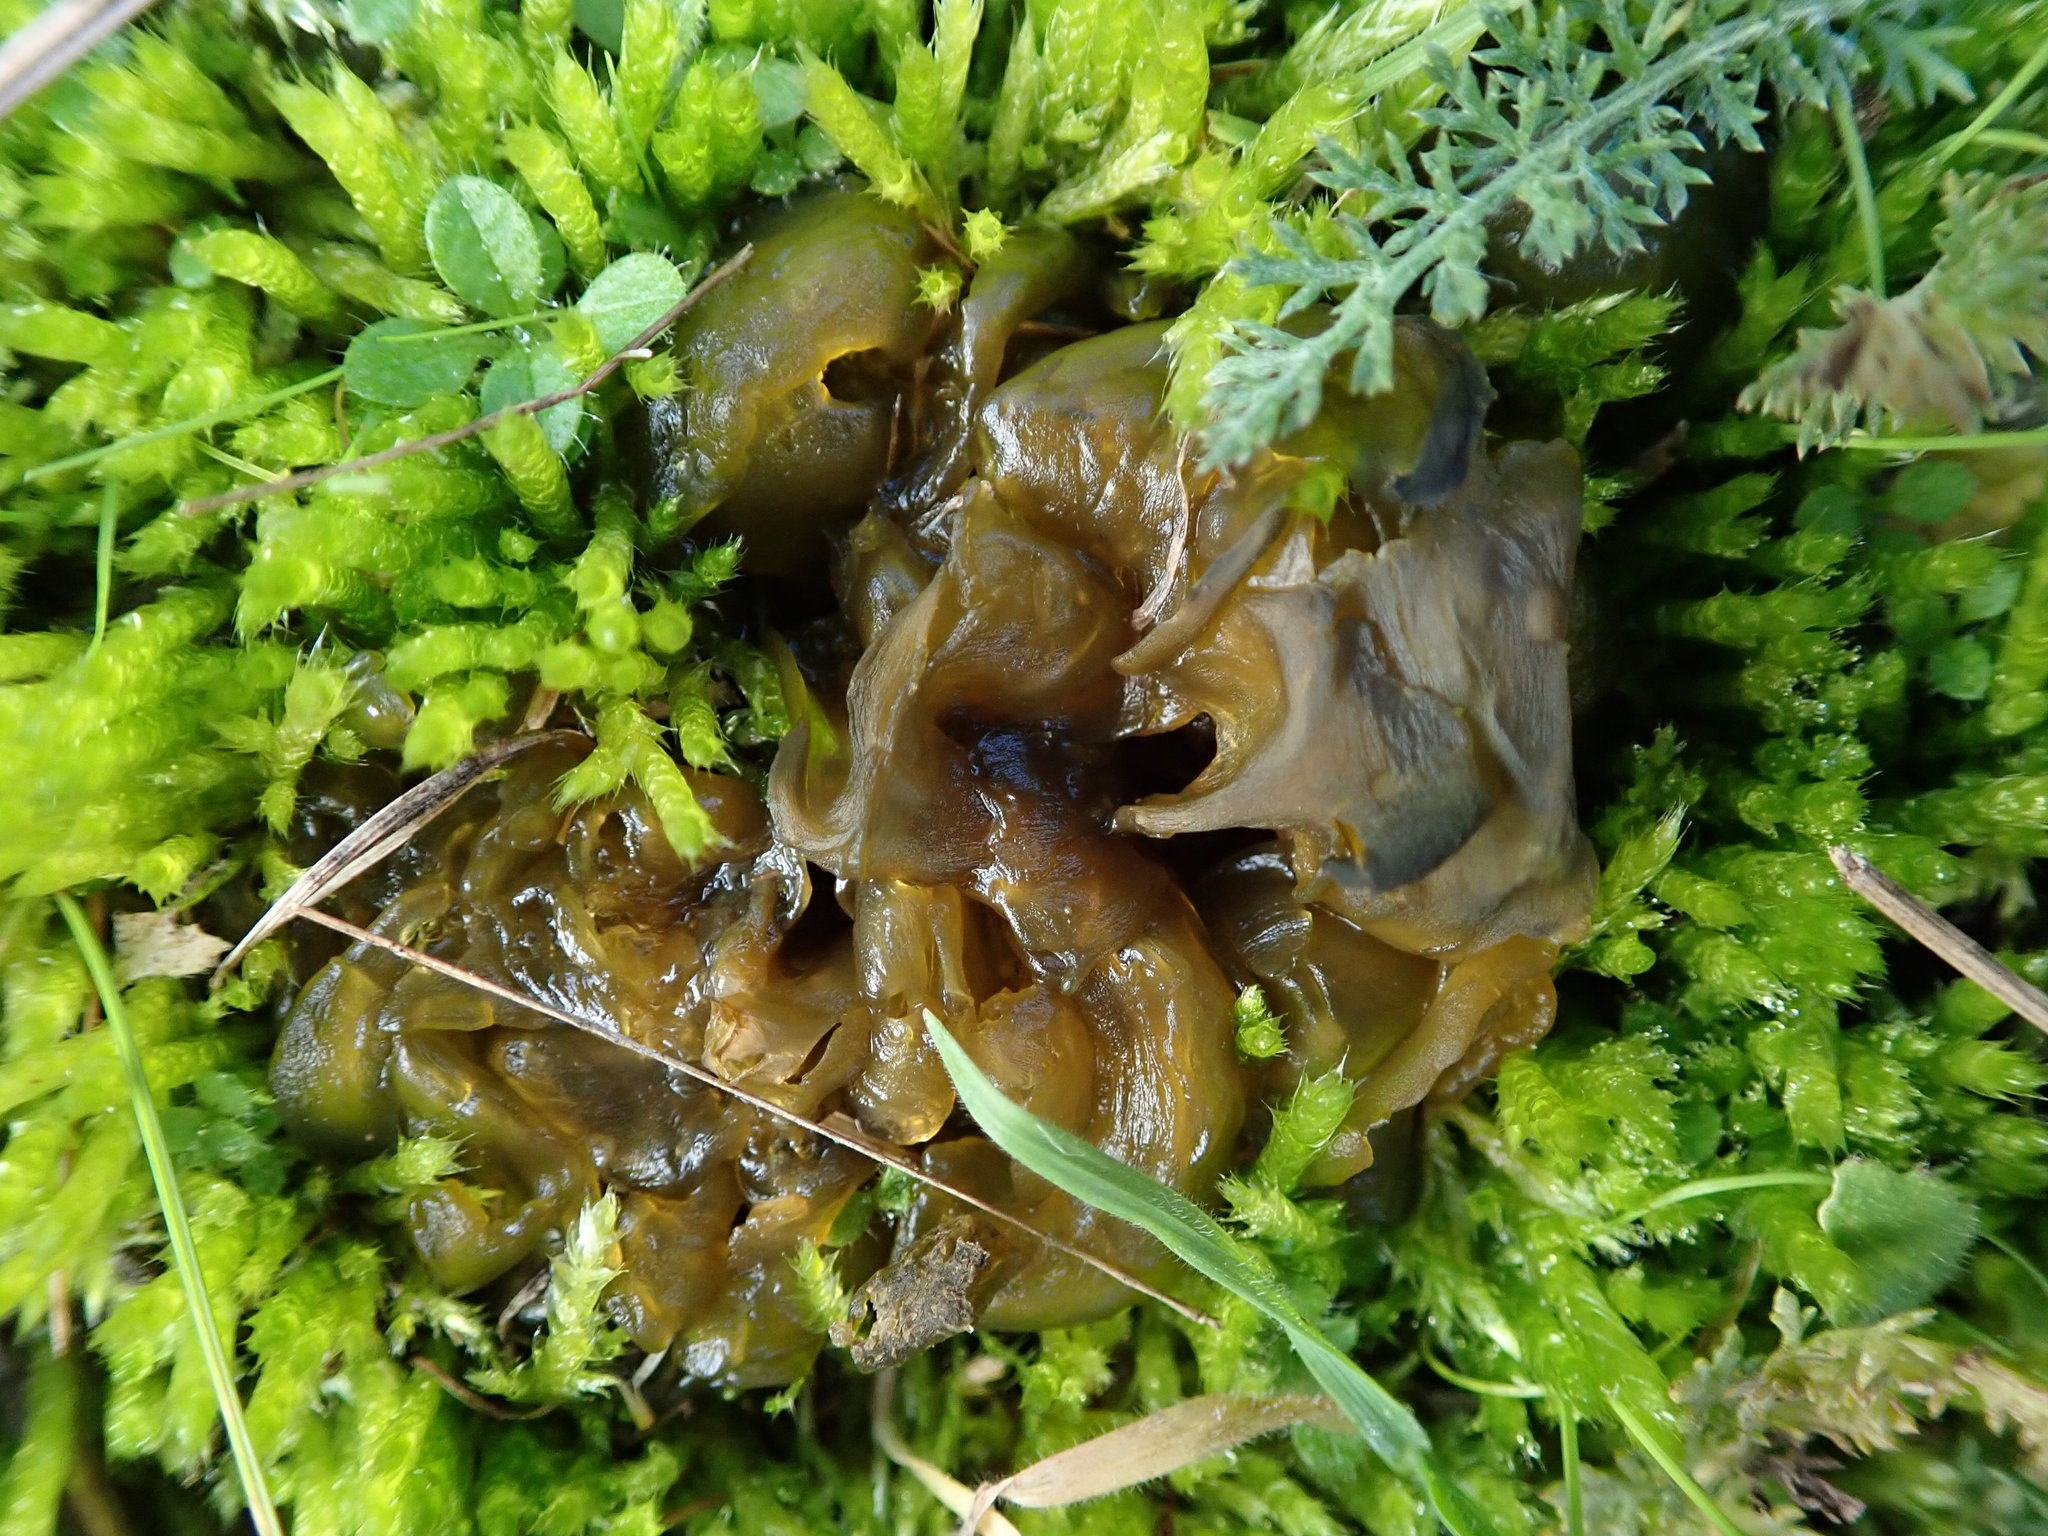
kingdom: Bacteria
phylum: Cyanobacteria
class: Cyanobacteriia
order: Cyanobacteriales
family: Nostocaceae
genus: Nostoc
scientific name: Nostoc commune
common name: Star jelly
